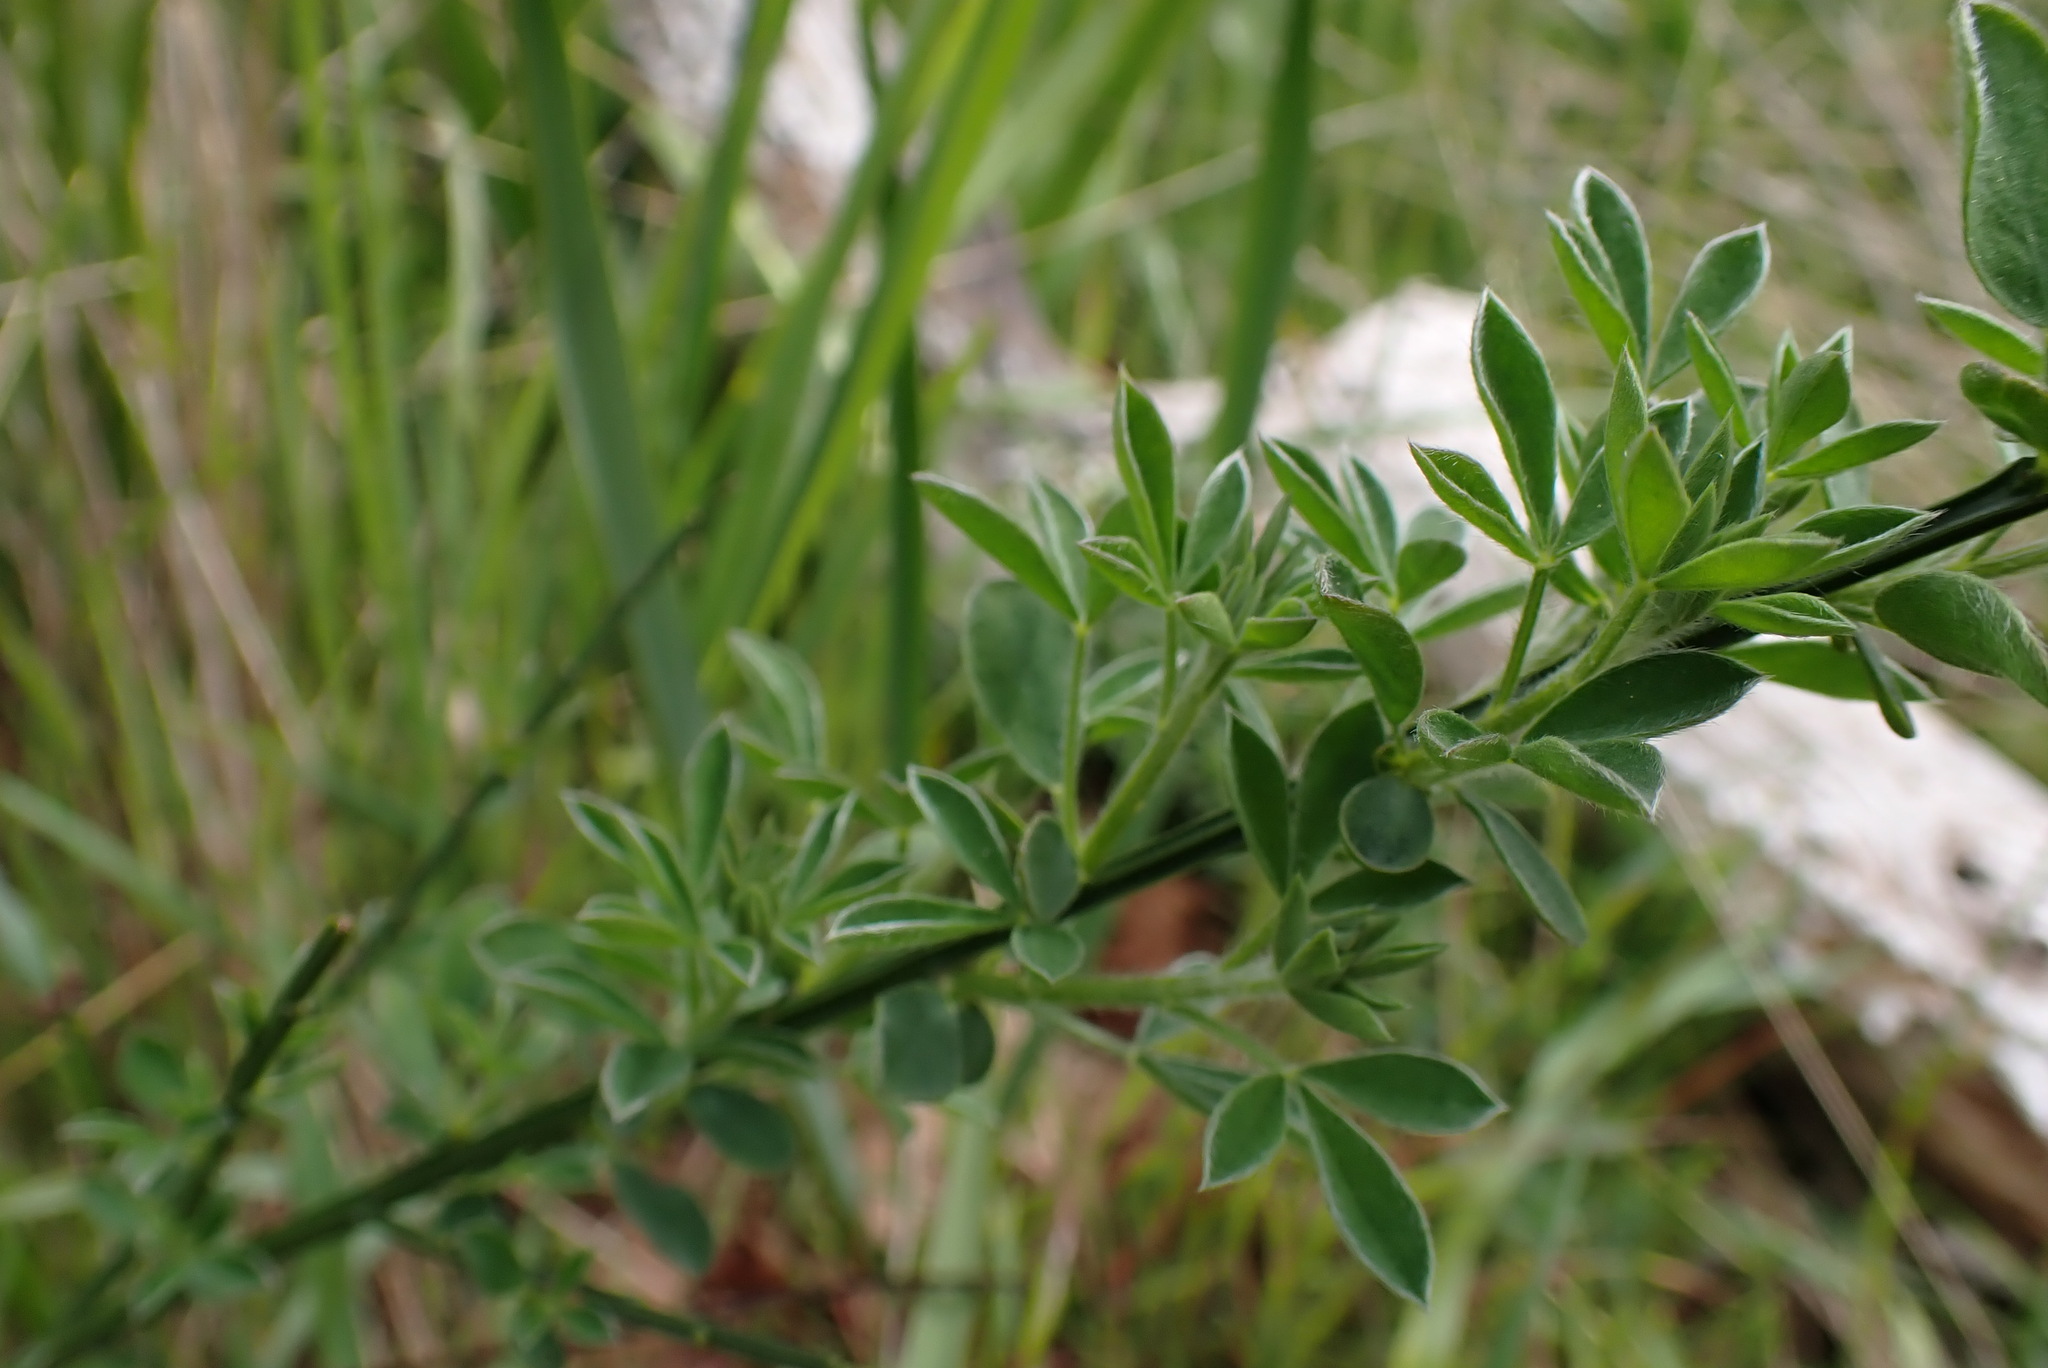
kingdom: Plantae
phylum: Tracheophyta
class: Magnoliopsida
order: Fabales
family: Fabaceae
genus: Cytisus
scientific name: Cytisus scoparius
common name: Scotch broom
